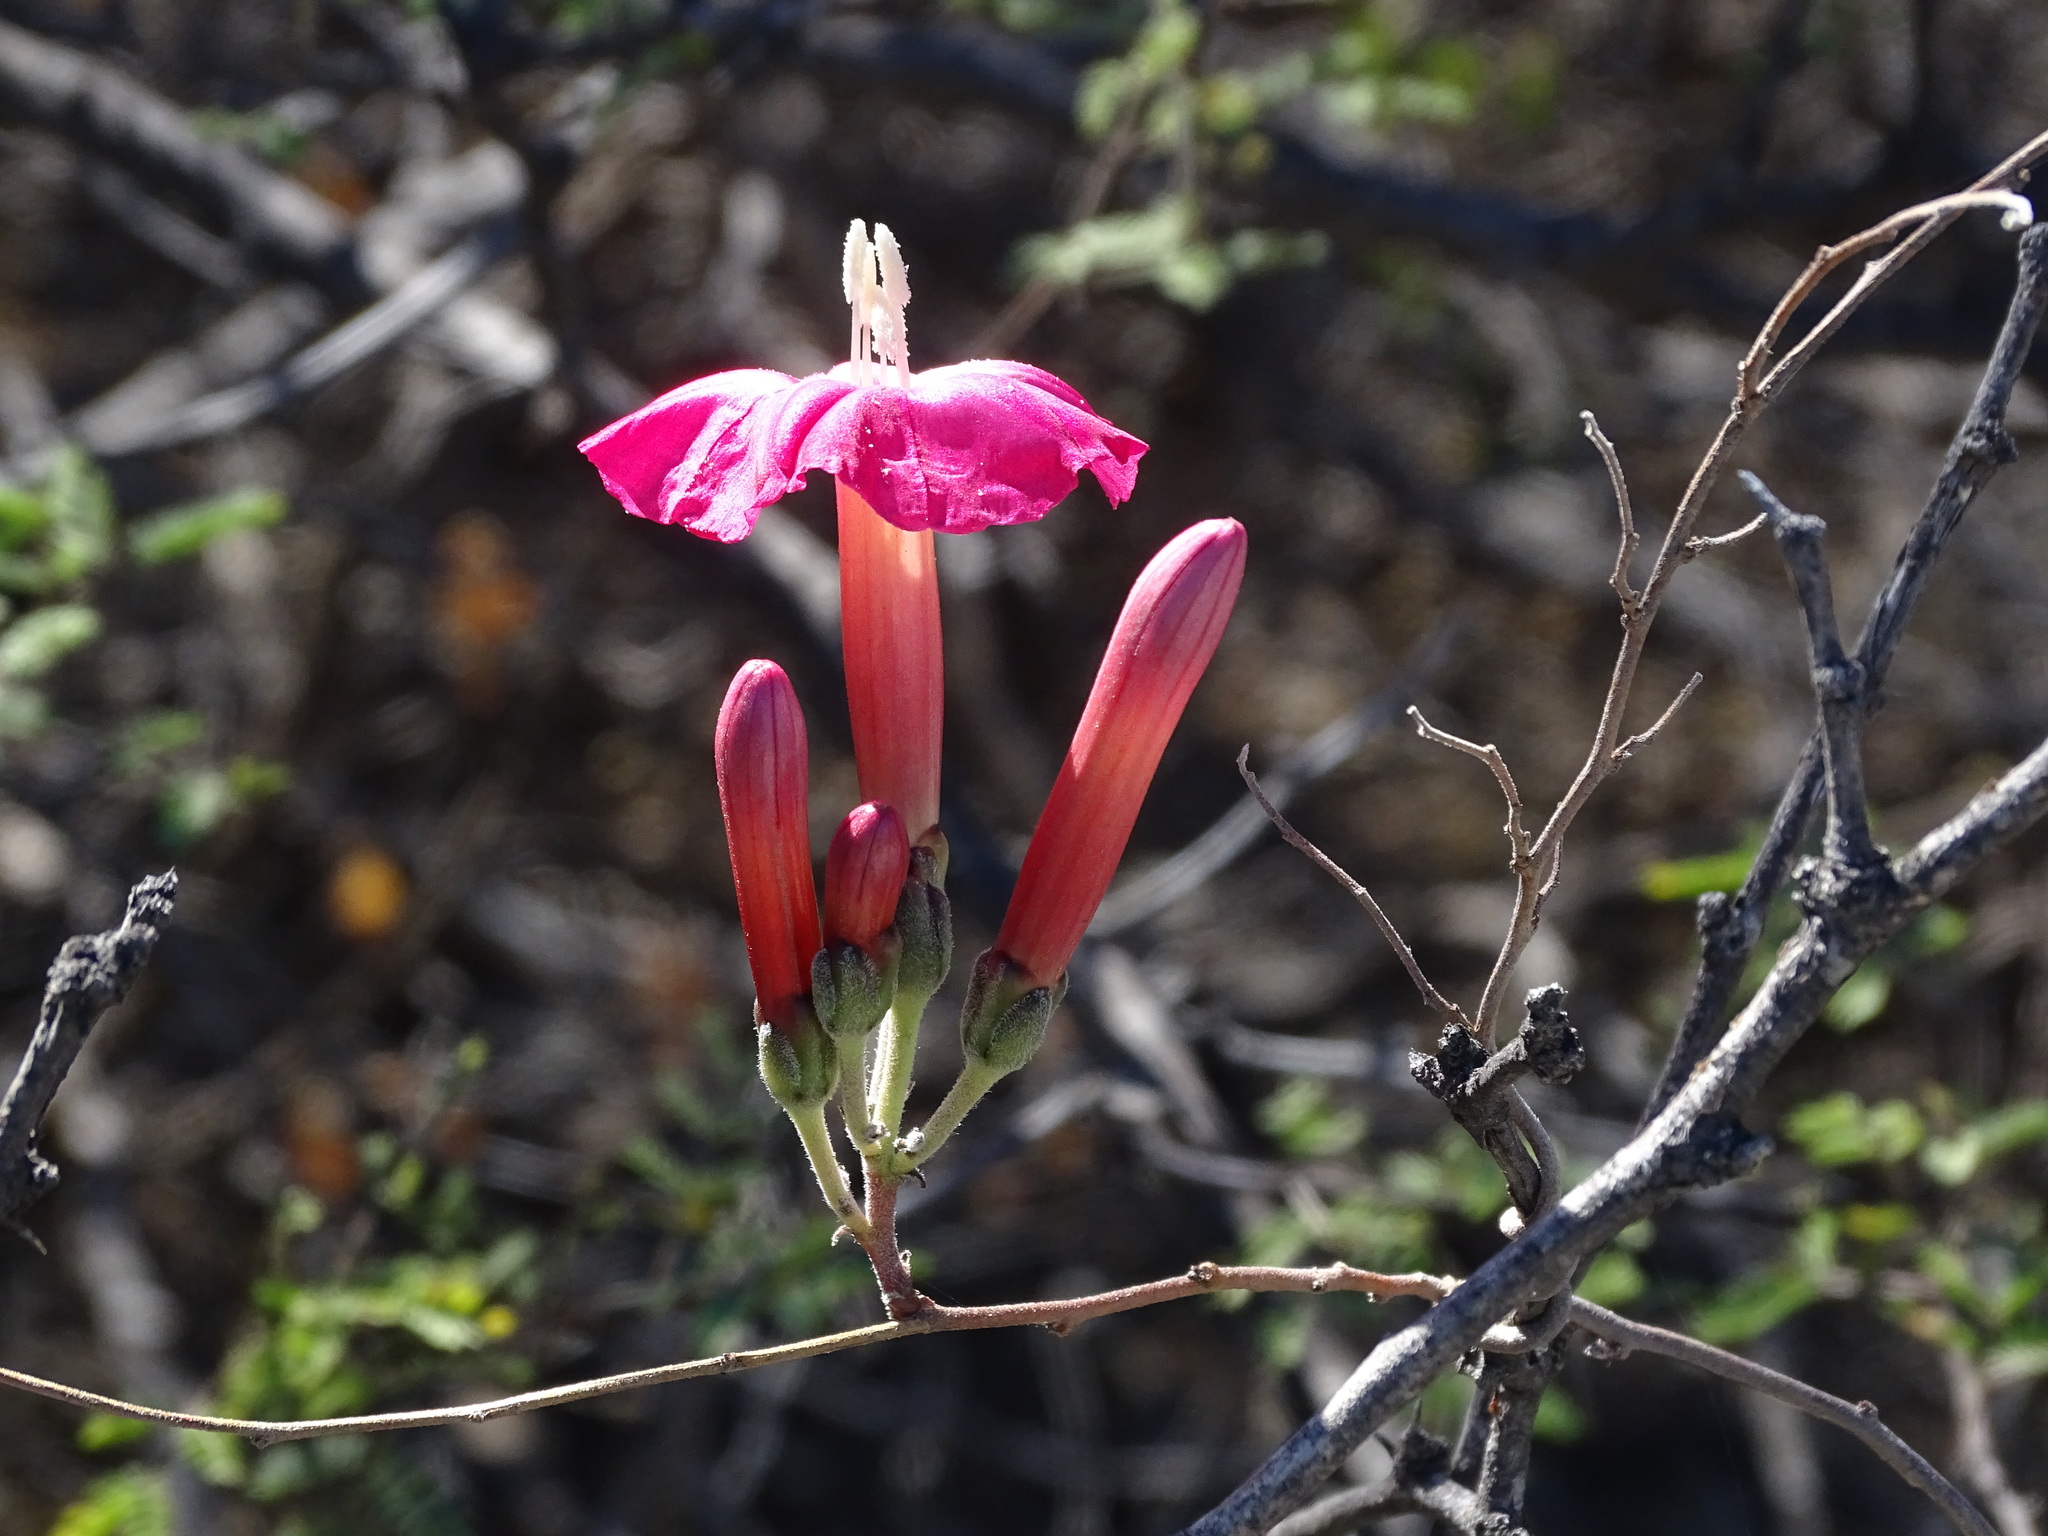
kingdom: Plantae
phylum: Tracheophyta
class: Magnoliopsida
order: Solanales
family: Convolvulaceae
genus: Ipomoea
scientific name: Ipomoea conzattii
